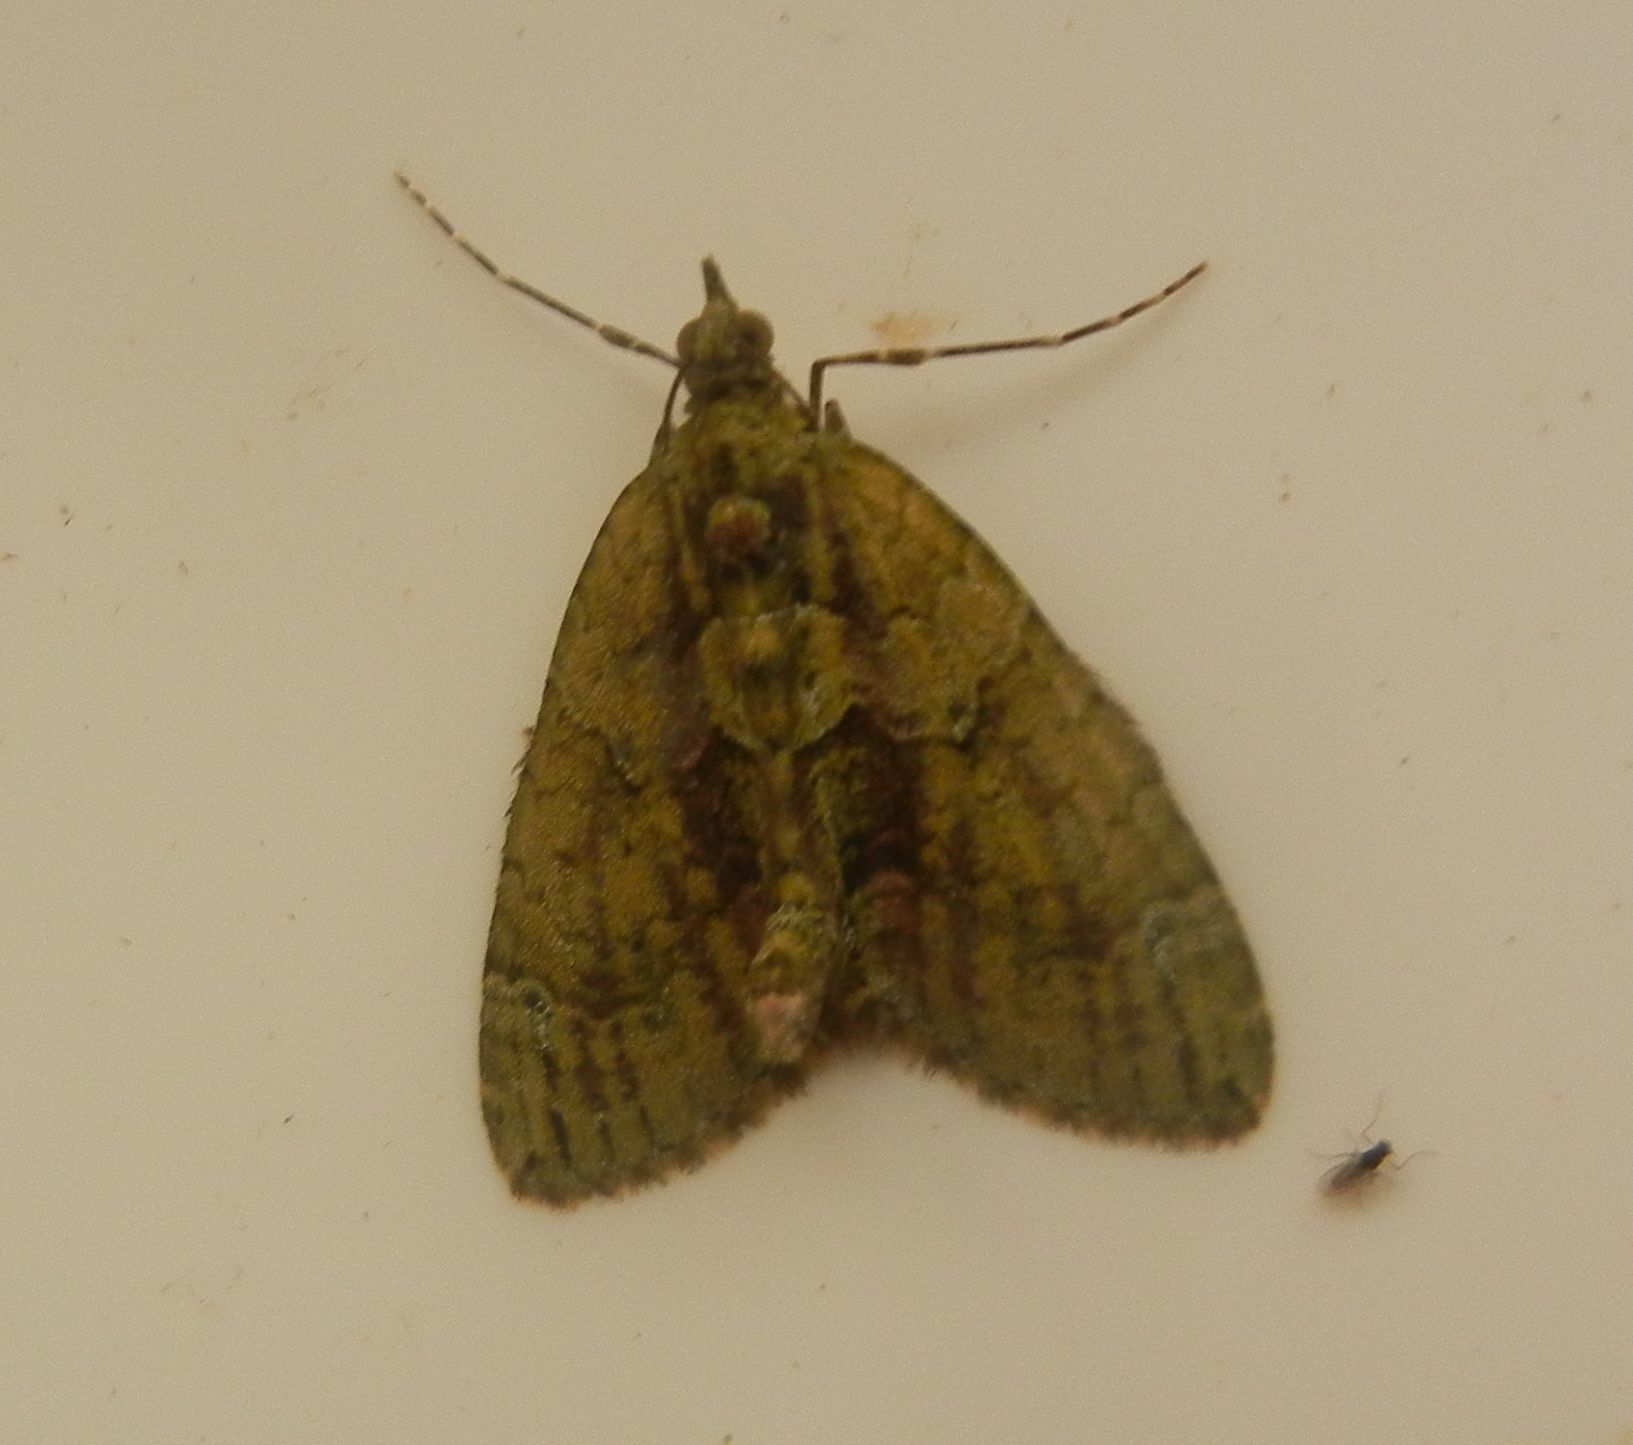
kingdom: Animalia
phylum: Arthropoda
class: Insecta
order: Lepidoptera
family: Geometridae
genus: Chloroclysta
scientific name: Chloroclysta siterata
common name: Red-green carpet
